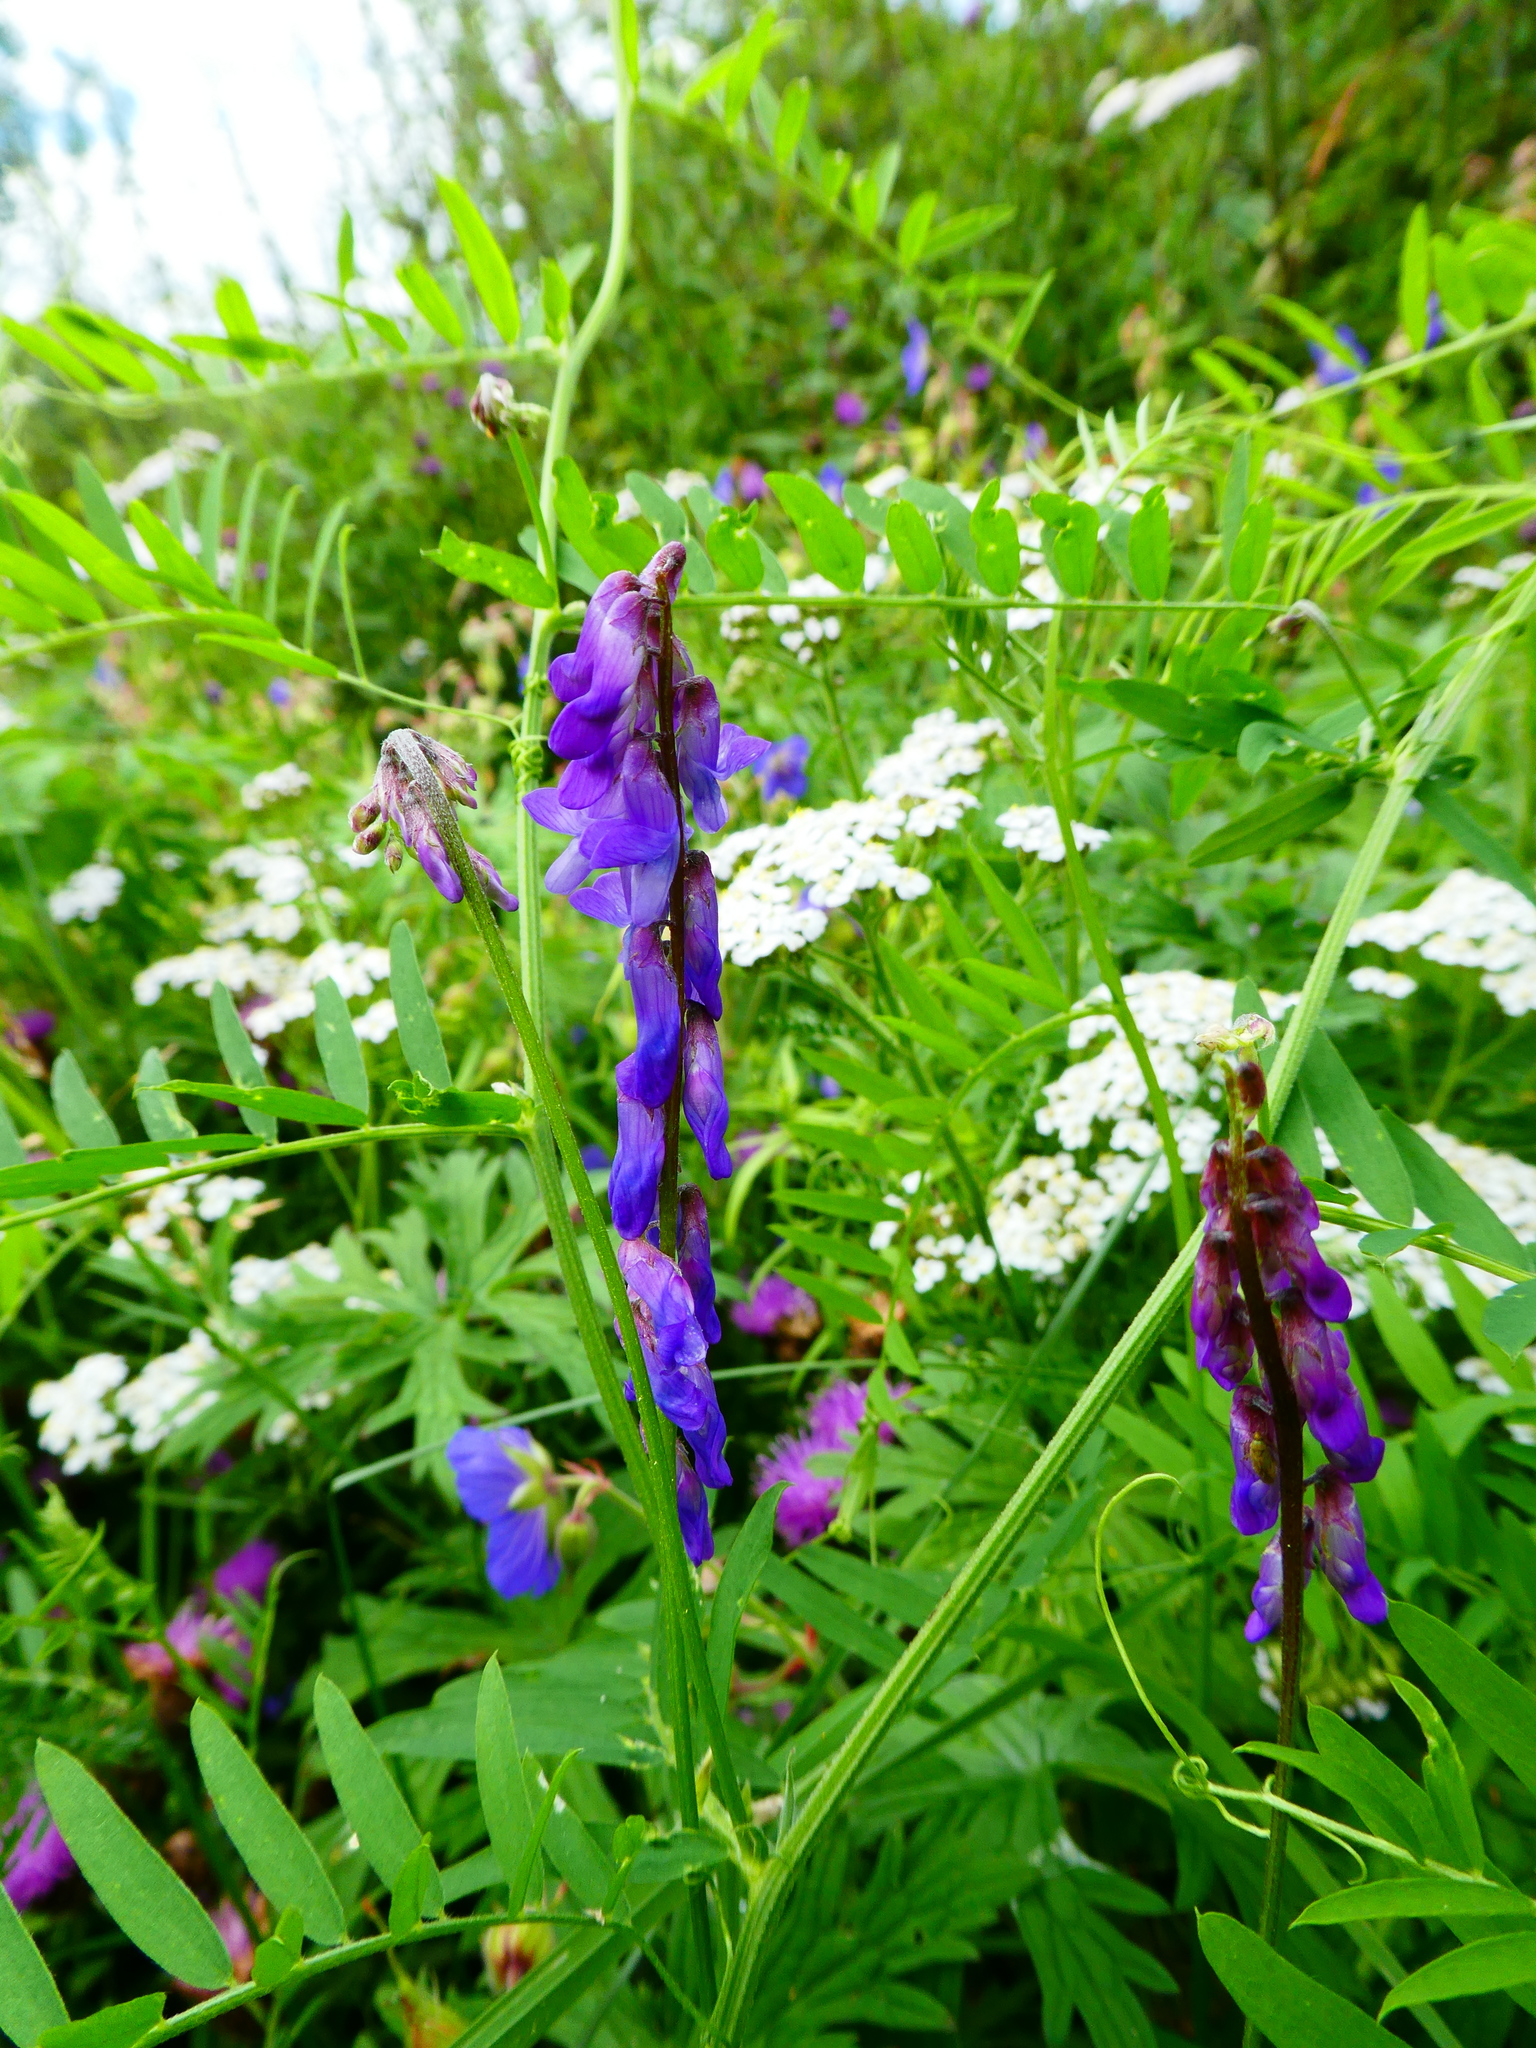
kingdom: Plantae
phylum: Tracheophyta
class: Magnoliopsida
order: Fabales
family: Fabaceae
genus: Vicia
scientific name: Vicia cracca
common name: Bird vetch
